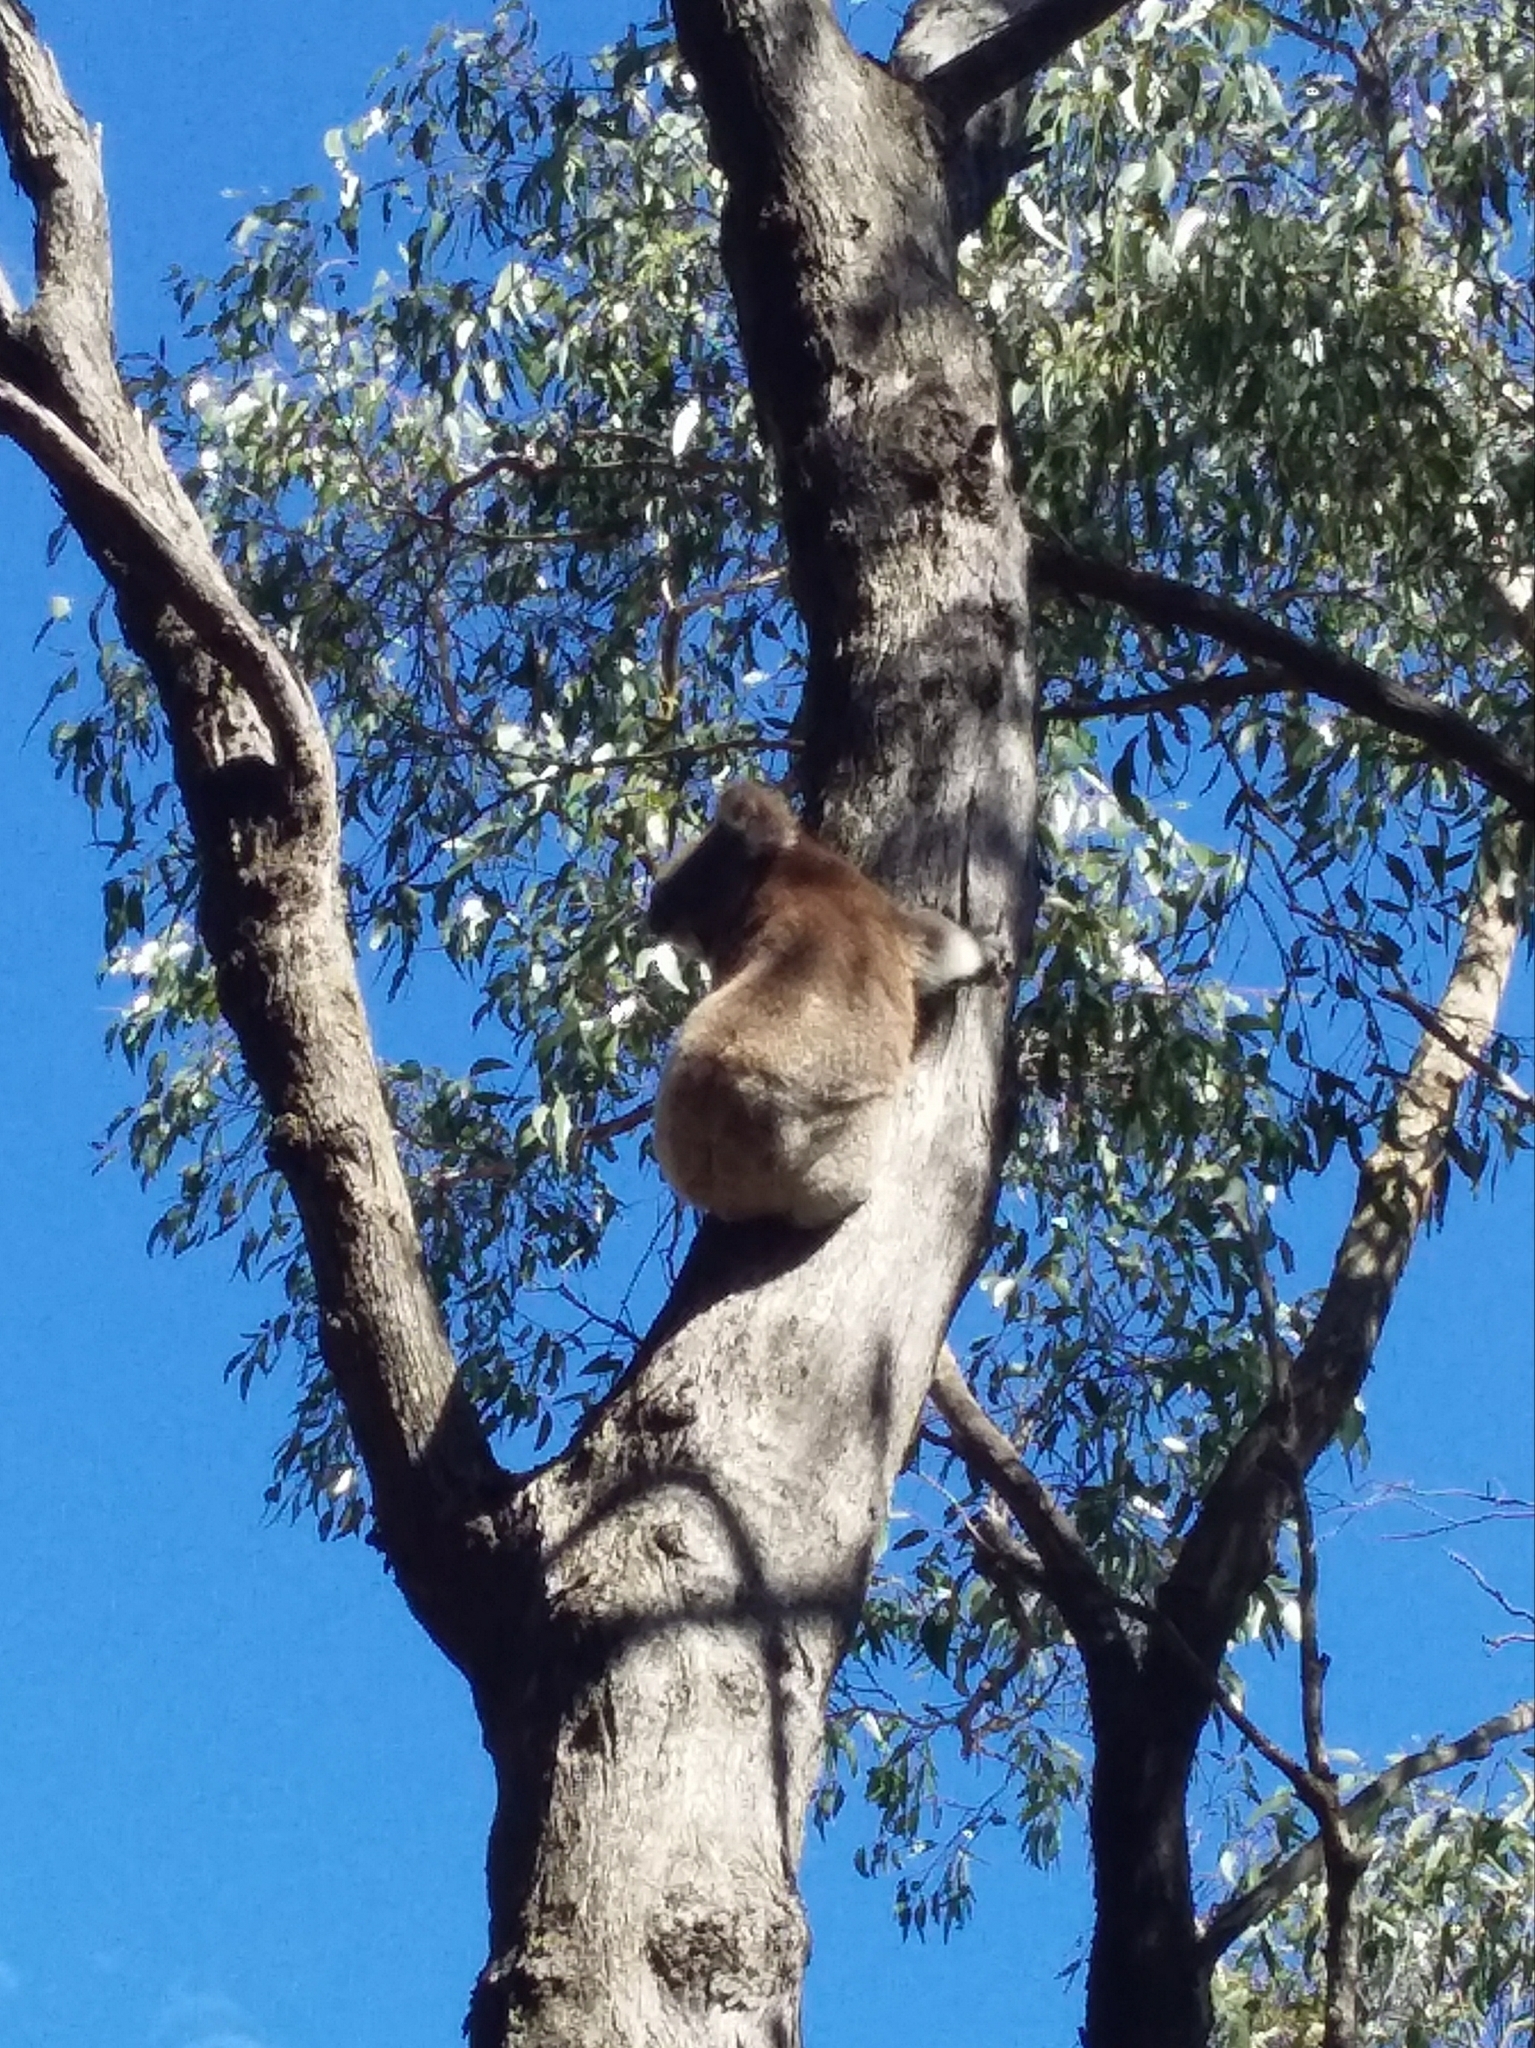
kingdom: Animalia
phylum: Chordata
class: Mammalia
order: Diprotodontia
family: Phascolarctidae
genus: Phascolarctos
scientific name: Phascolarctos cinereus
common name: Koala
